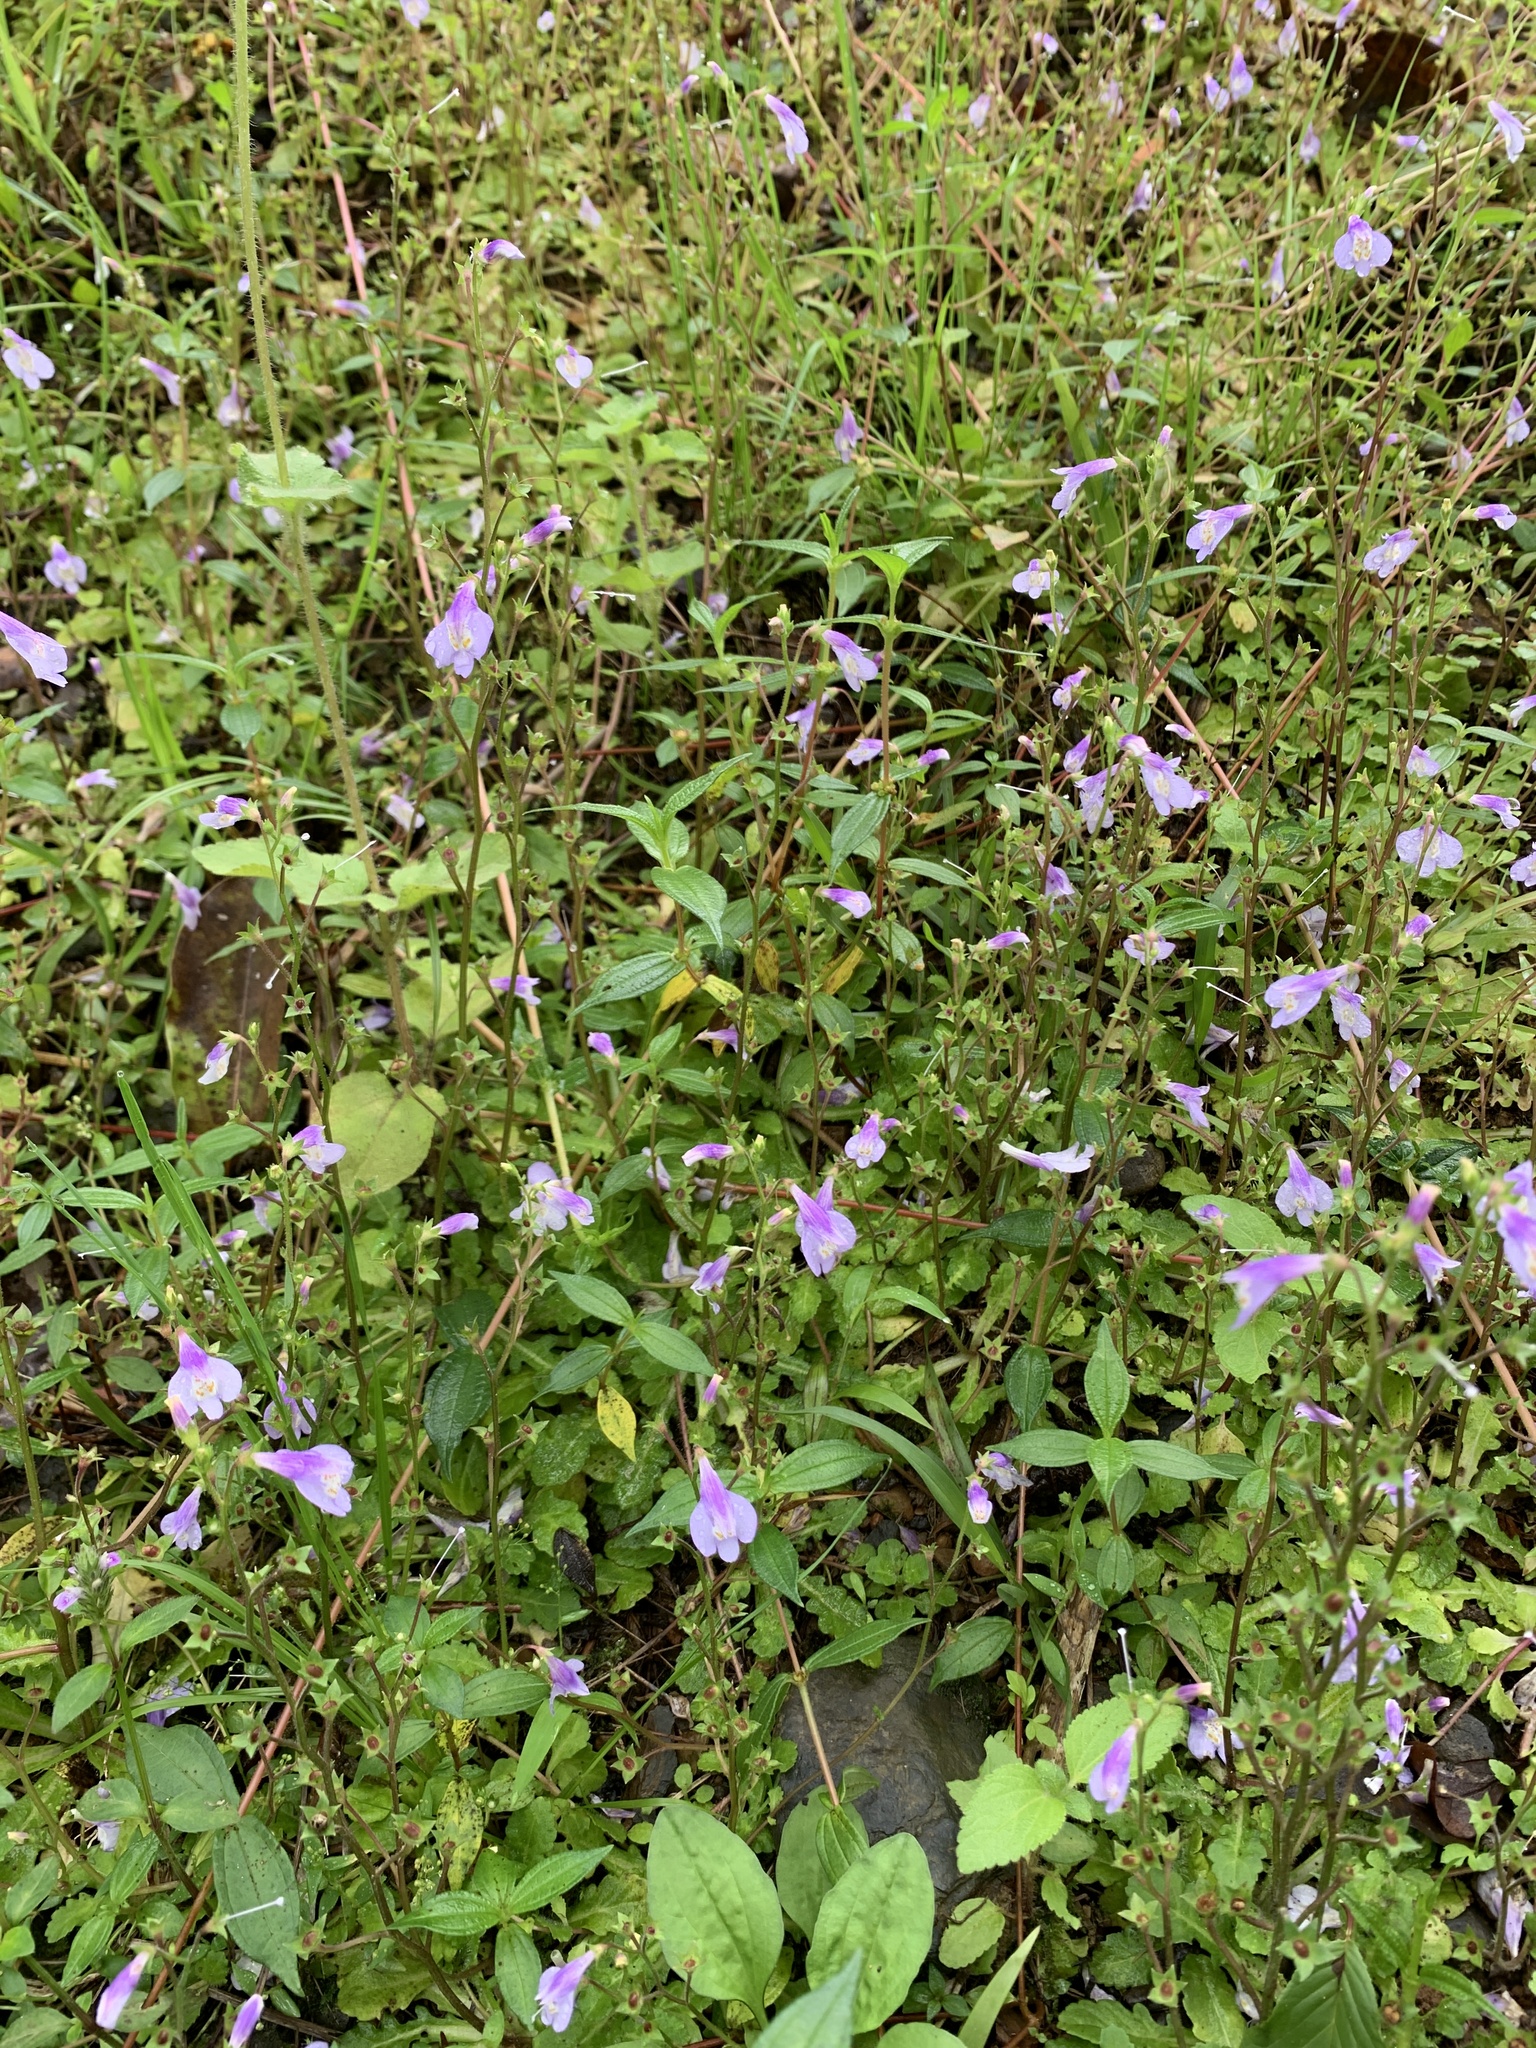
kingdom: Plantae
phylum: Tracheophyta
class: Magnoliopsida
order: Lamiales
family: Mazaceae
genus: Mazus
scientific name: Mazus fauriei
